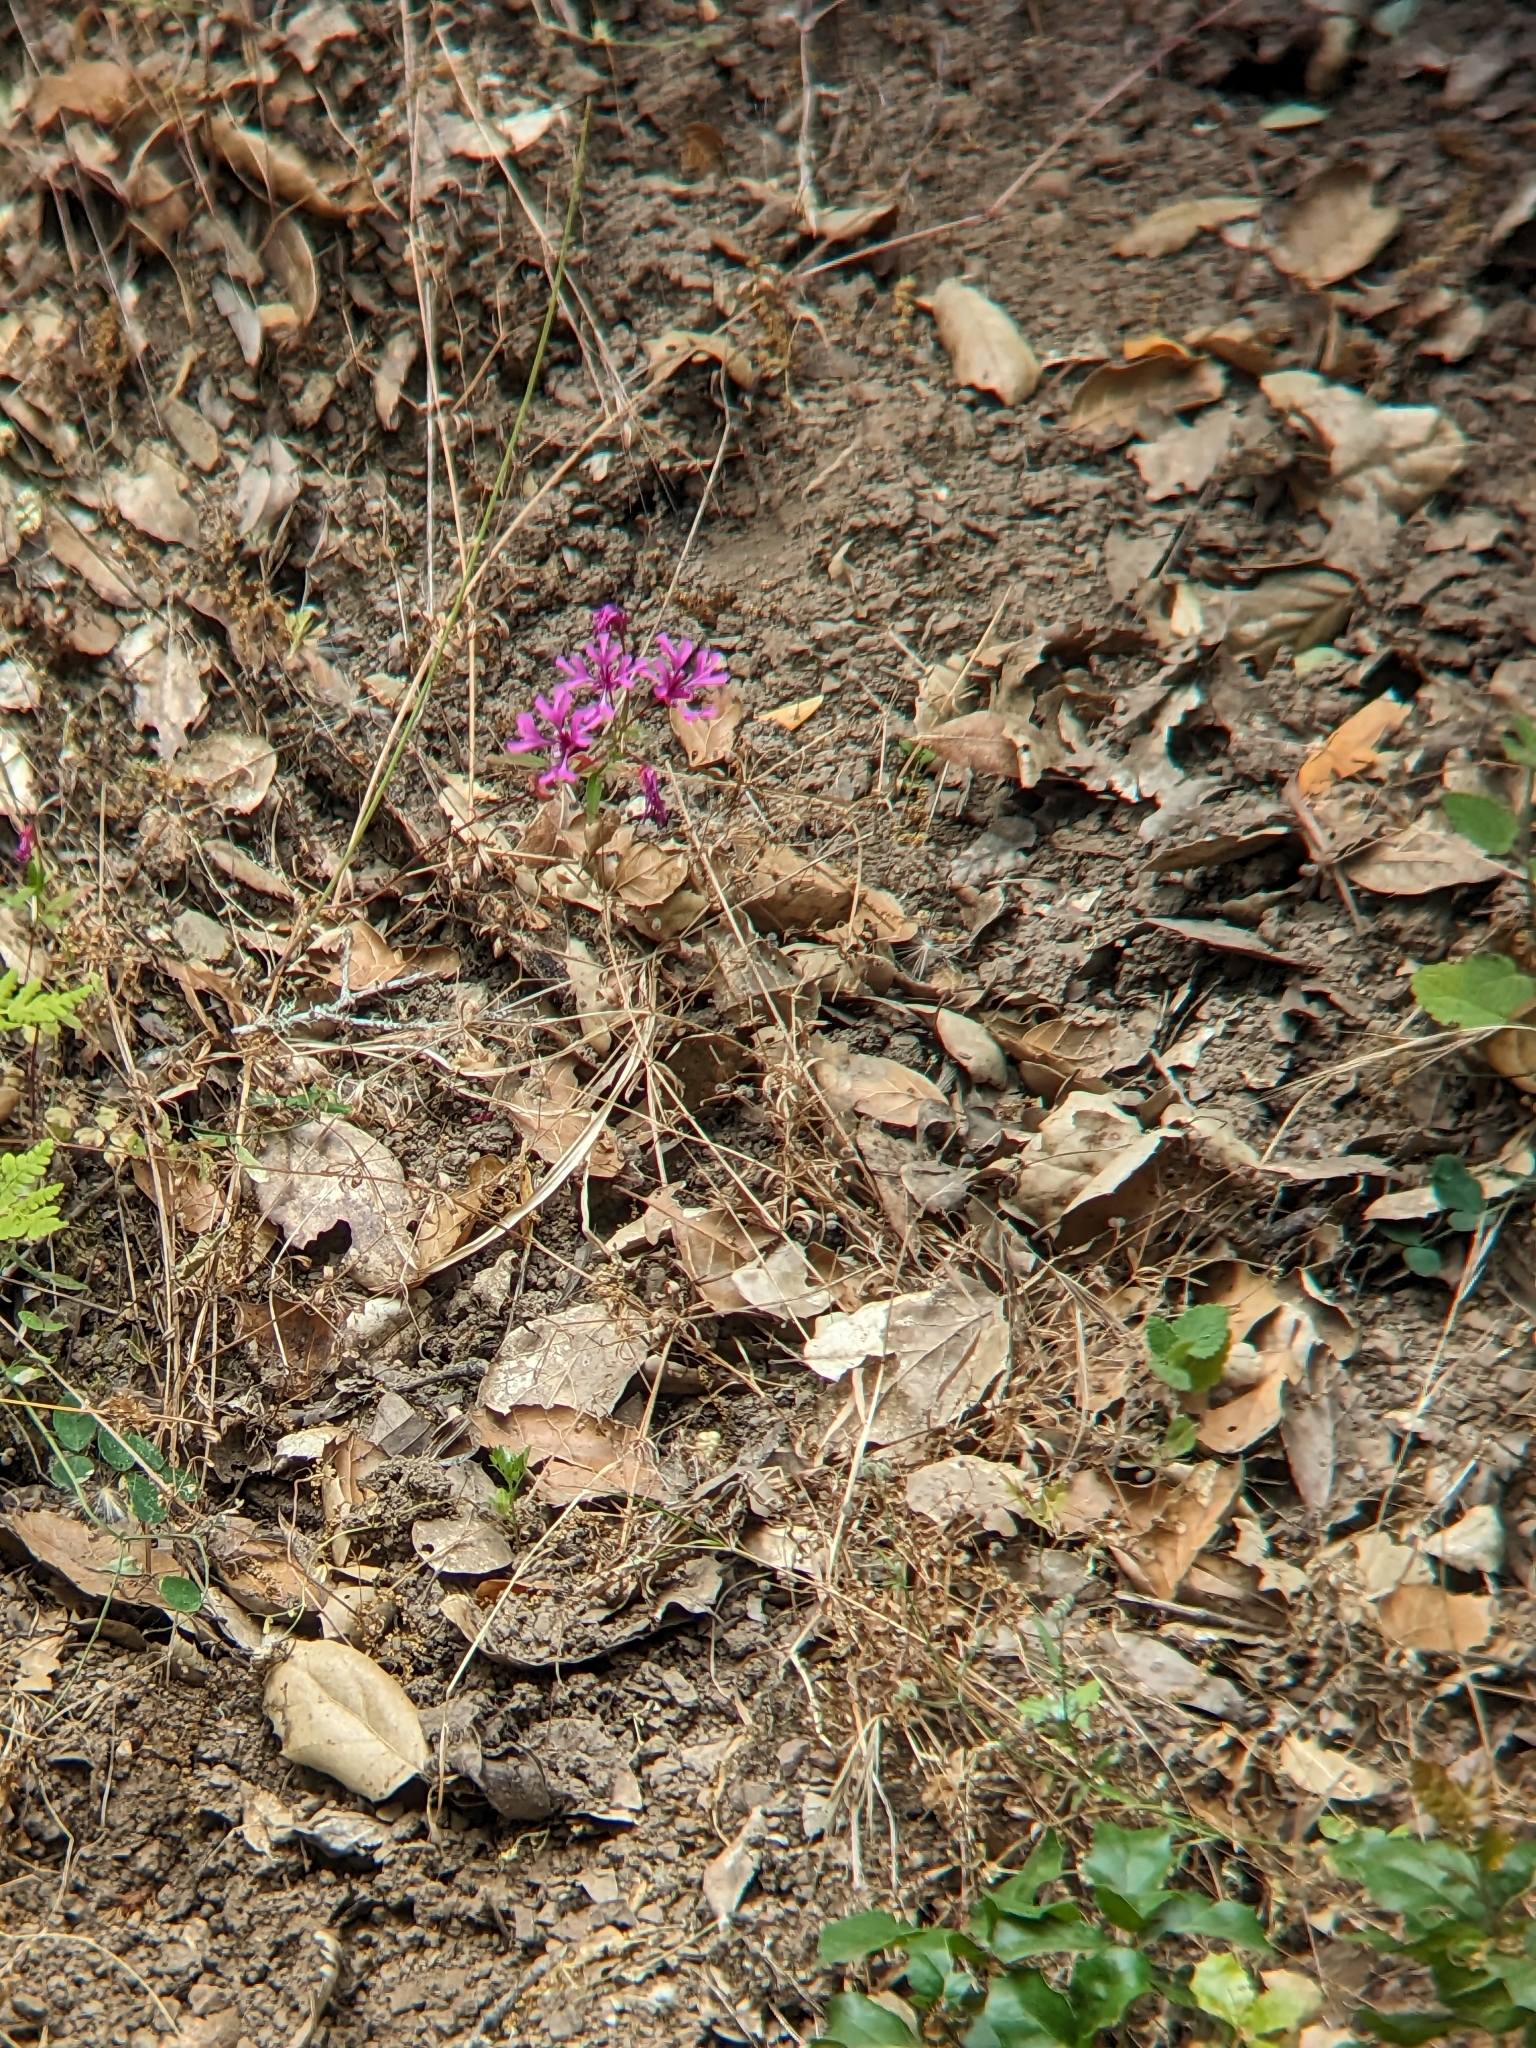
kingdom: Plantae
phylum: Tracheophyta
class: Magnoliopsida
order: Myrtales
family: Onagraceae
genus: Clarkia
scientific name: Clarkia concinna
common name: Red-ribbons
